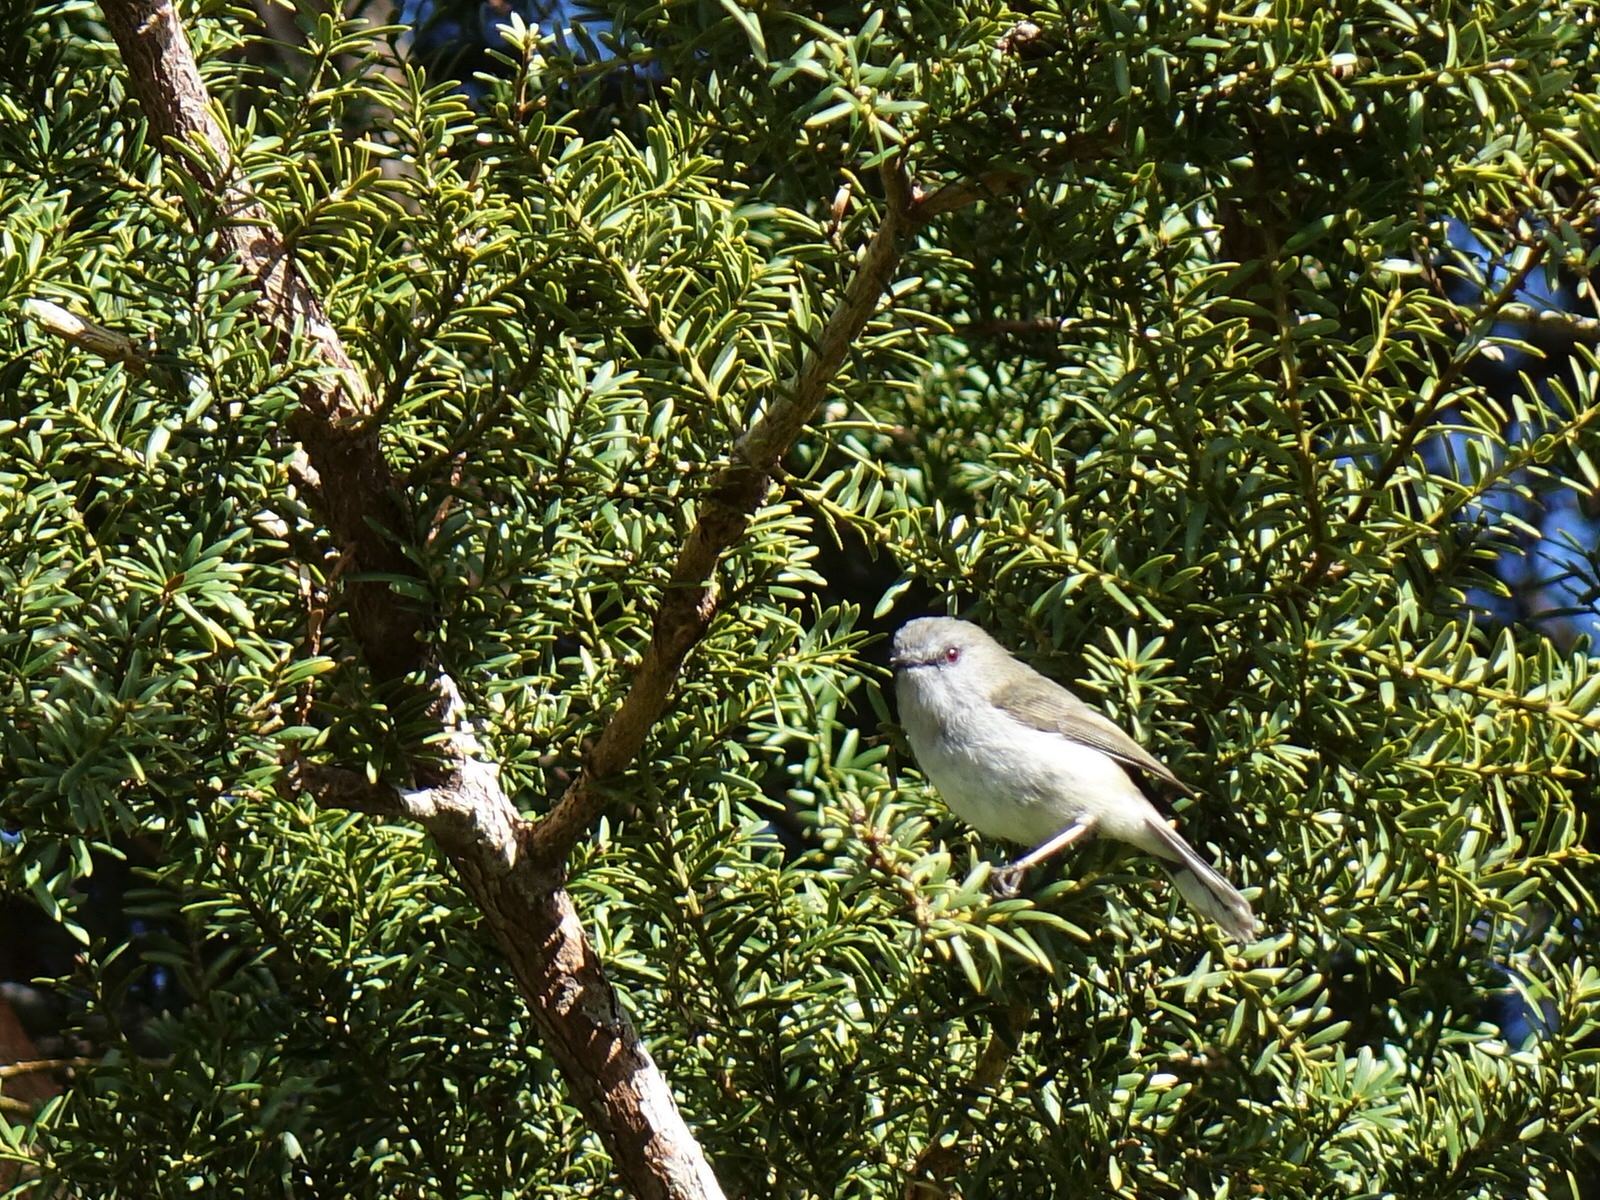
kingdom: Animalia
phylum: Chordata
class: Aves
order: Passeriformes
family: Acanthizidae
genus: Gerygone
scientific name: Gerygone igata
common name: Grey gerygone
